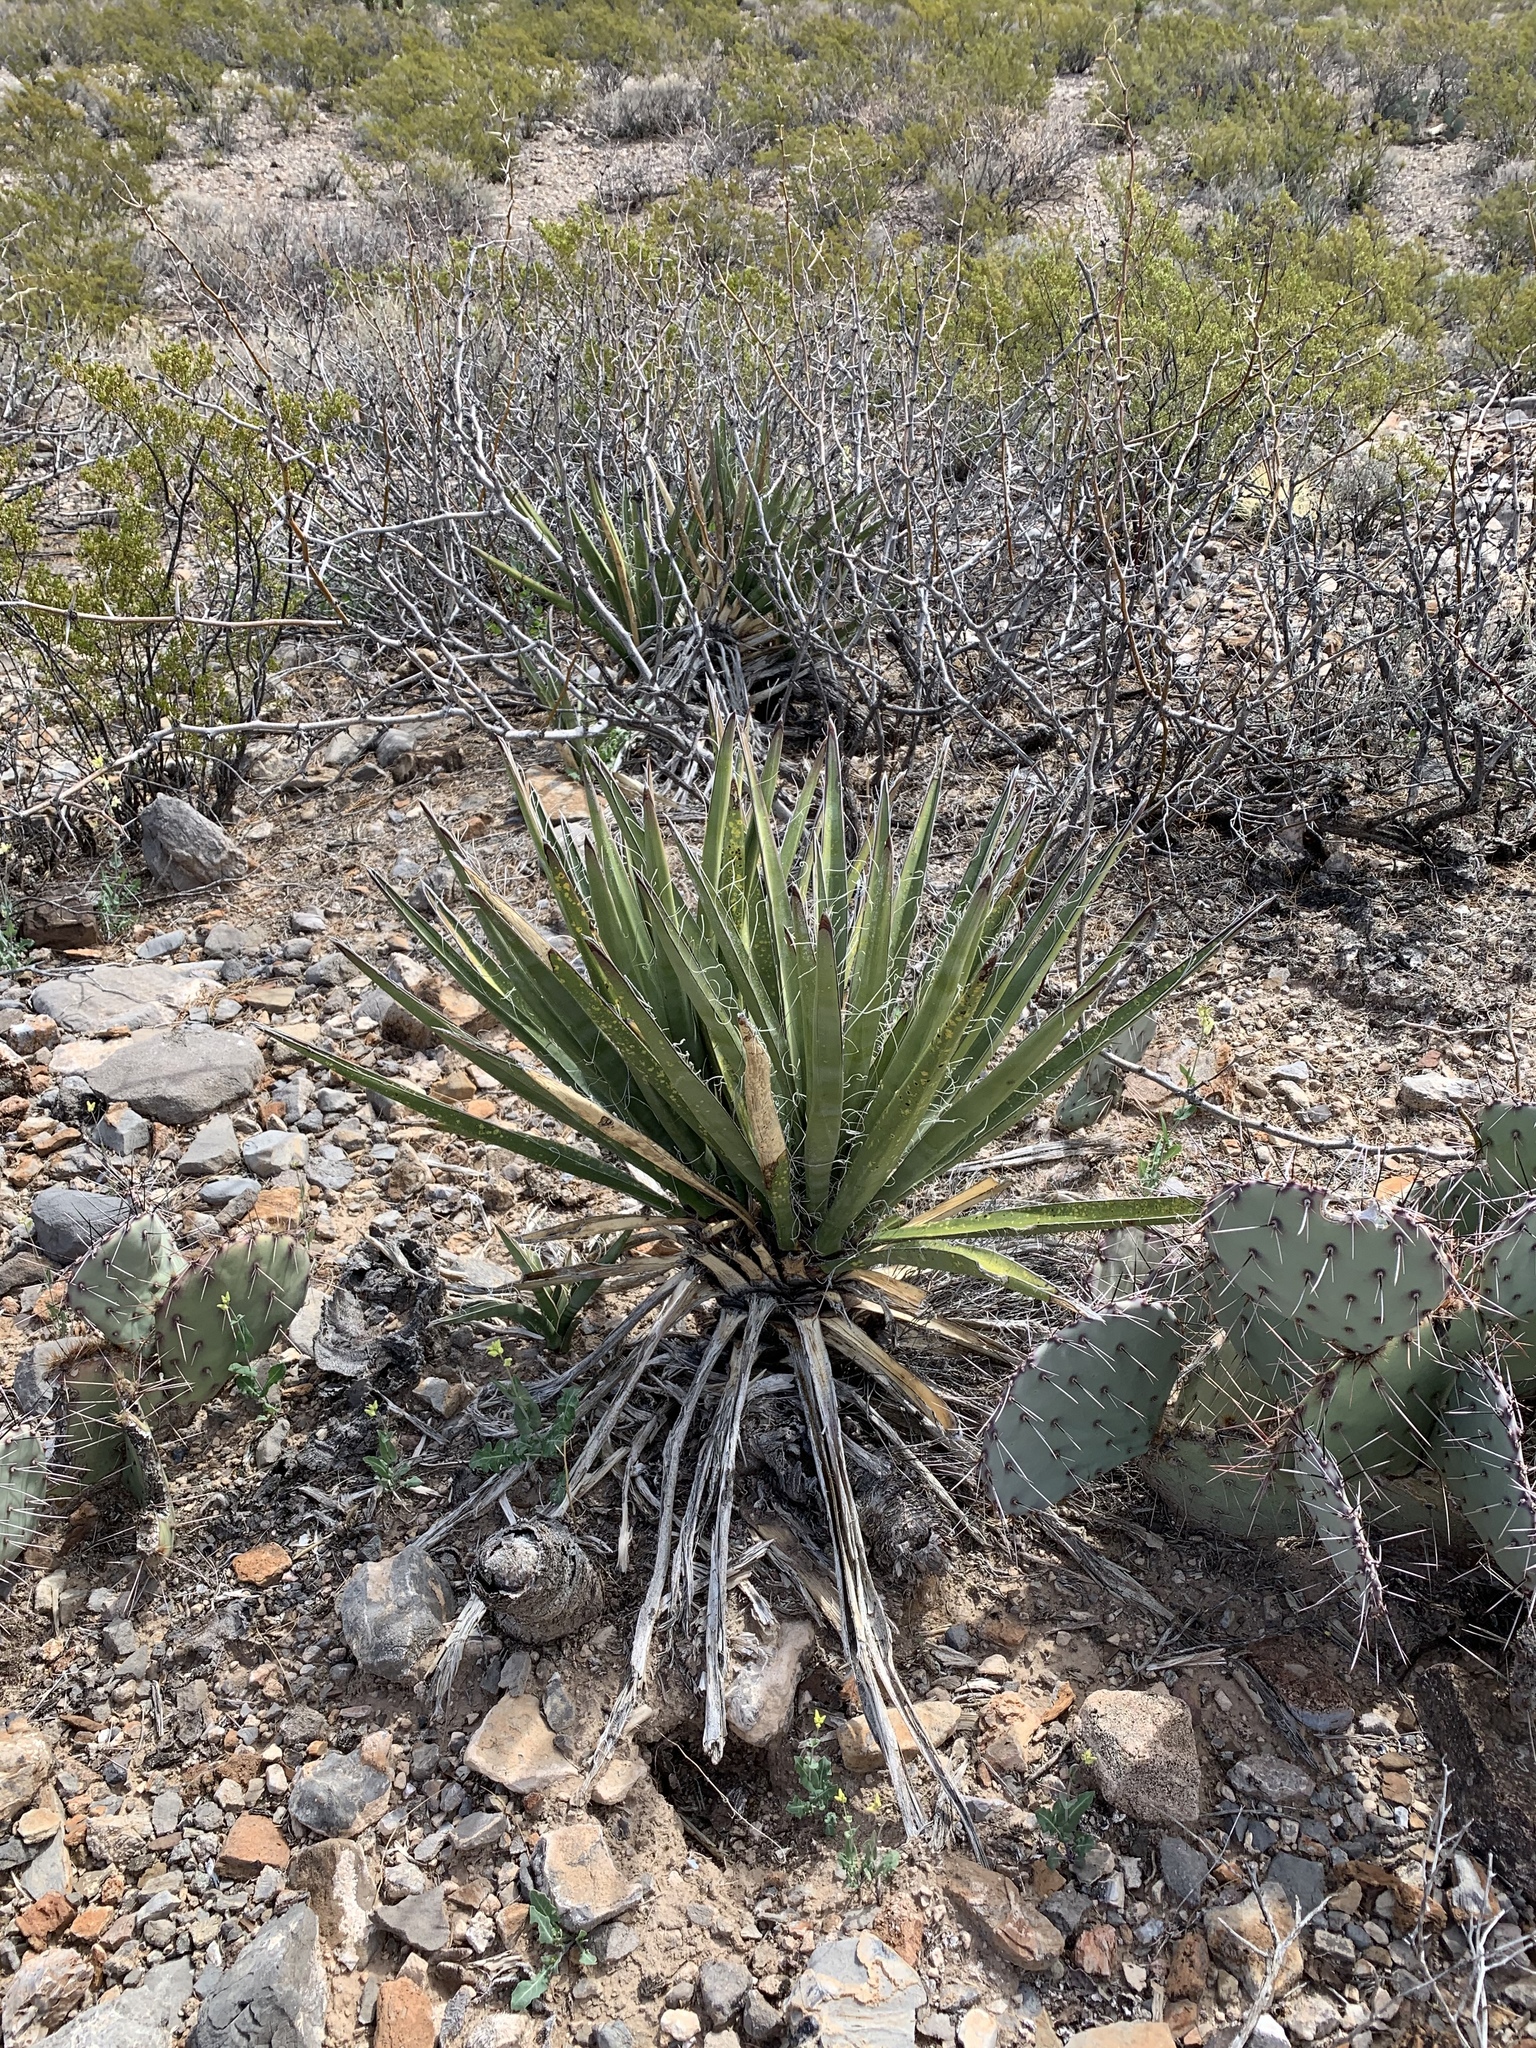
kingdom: Plantae
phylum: Tracheophyta
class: Liliopsida
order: Asparagales
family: Asparagaceae
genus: Yucca
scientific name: Yucca treculiana
